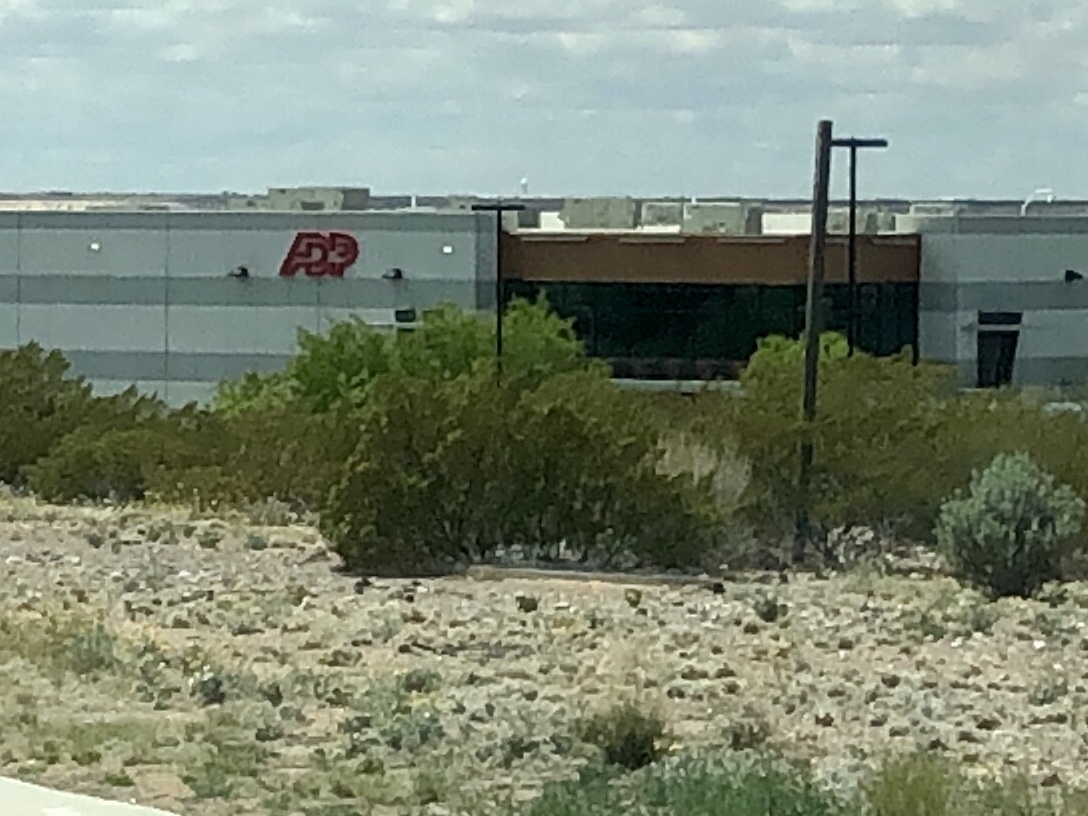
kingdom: Plantae
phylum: Tracheophyta
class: Magnoliopsida
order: Zygophyllales
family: Zygophyllaceae
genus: Larrea
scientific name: Larrea tridentata
